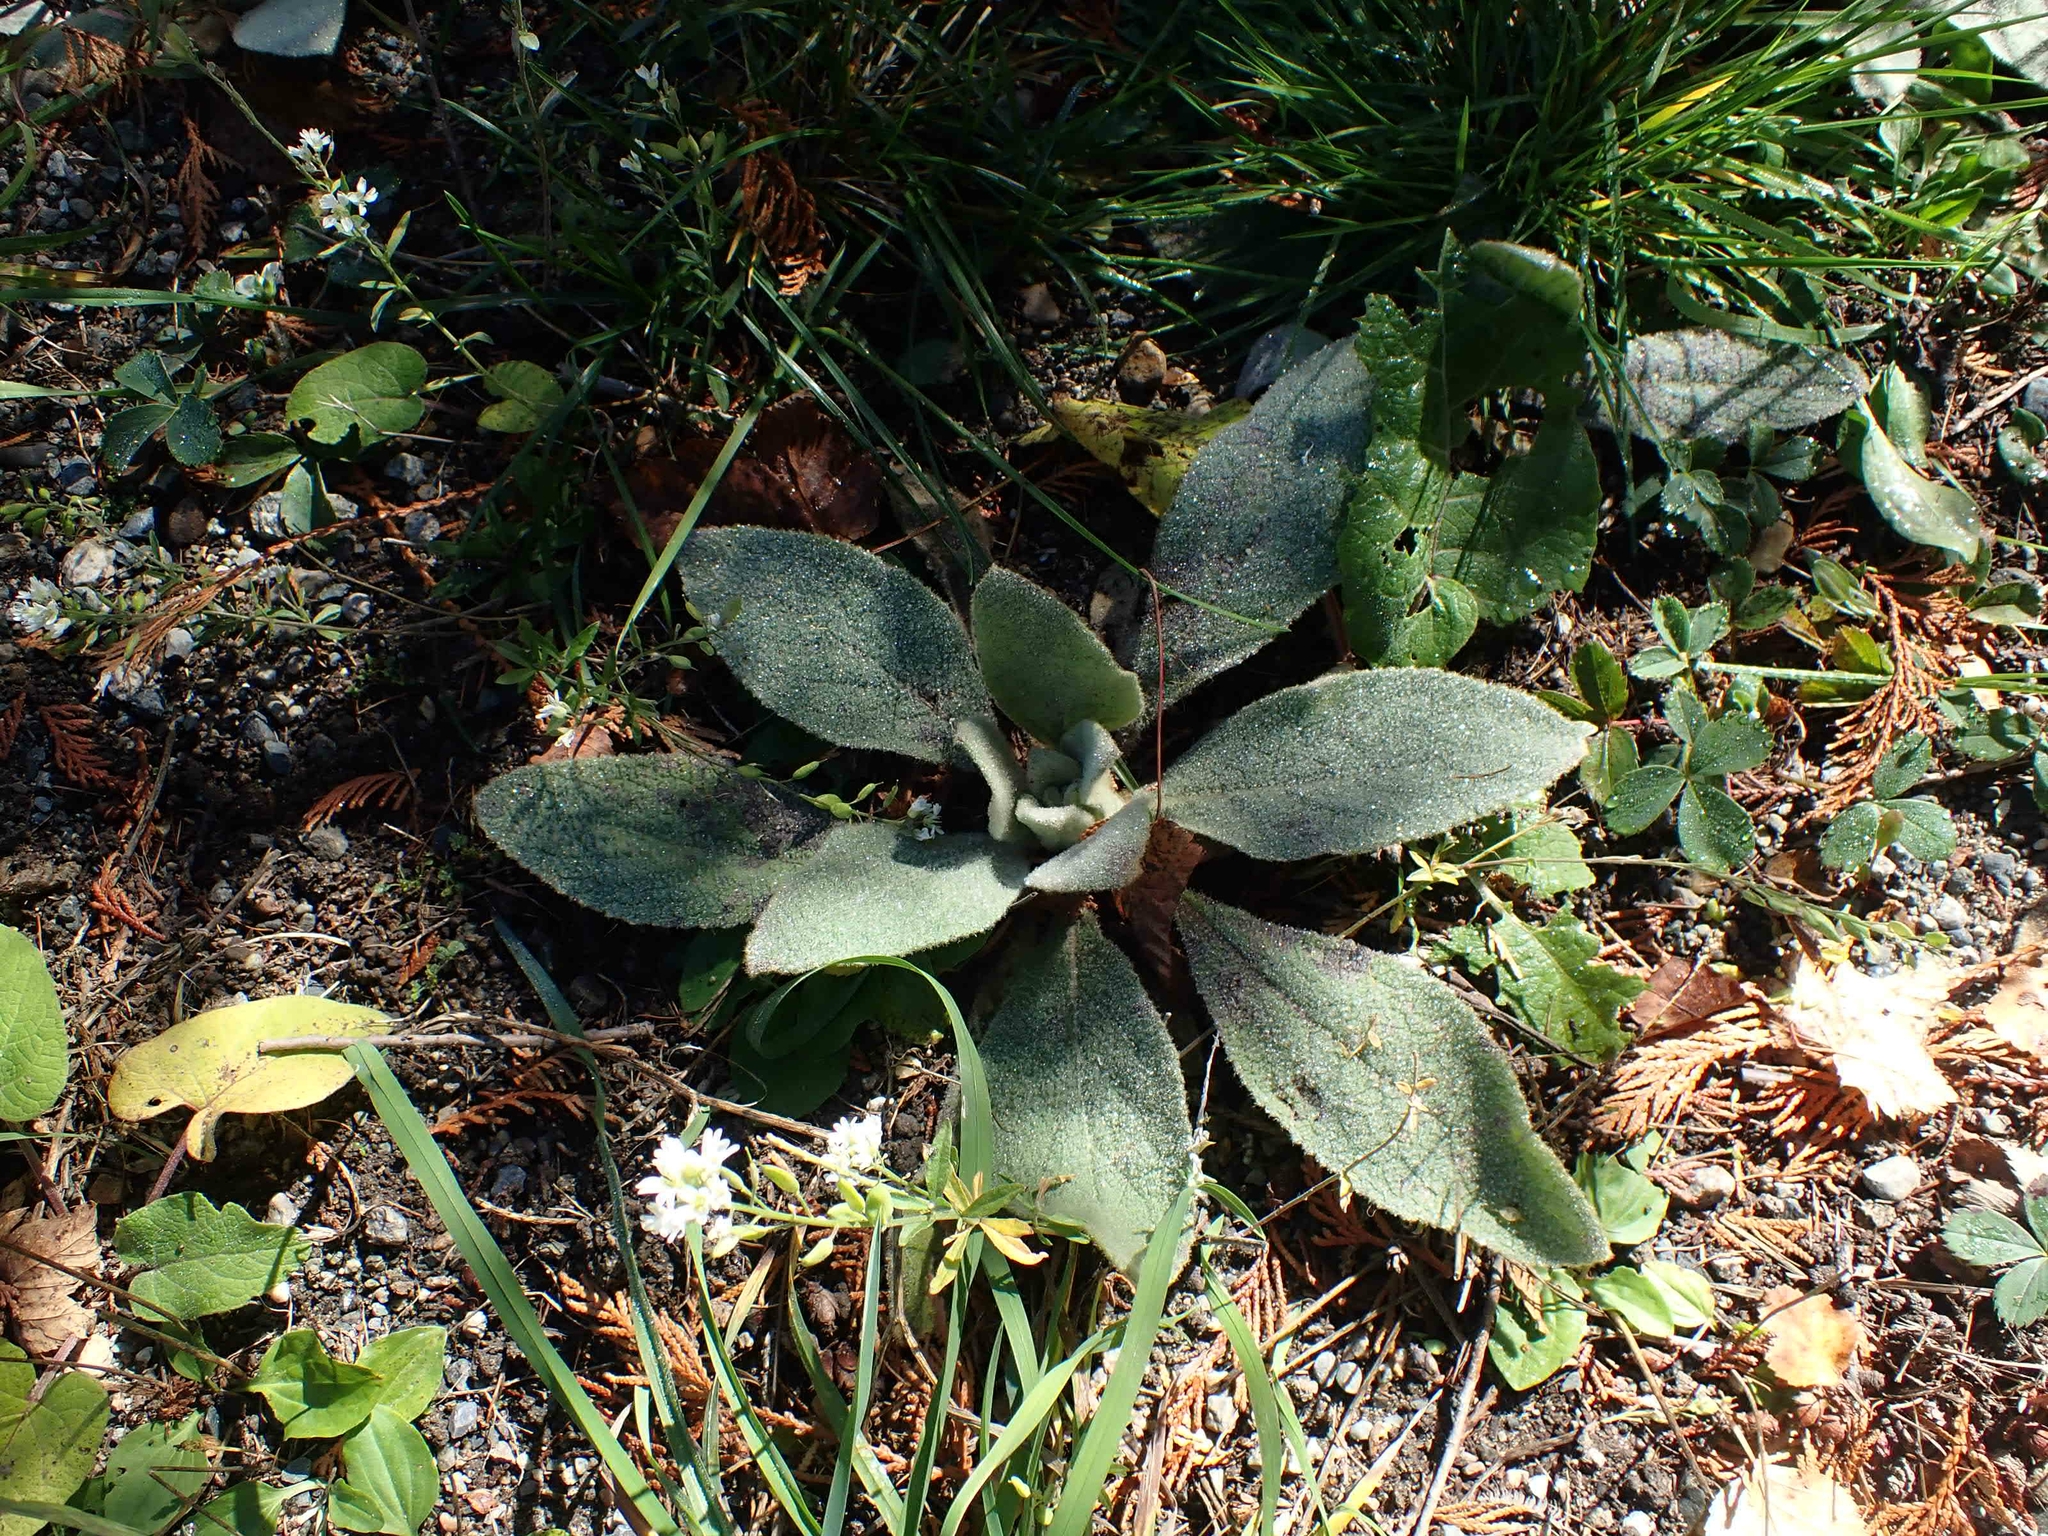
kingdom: Plantae
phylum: Tracheophyta
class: Magnoliopsida
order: Lamiales
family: Scrophulariaceae
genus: Verbascum
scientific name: Verbascum thapsus
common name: Common mullein
